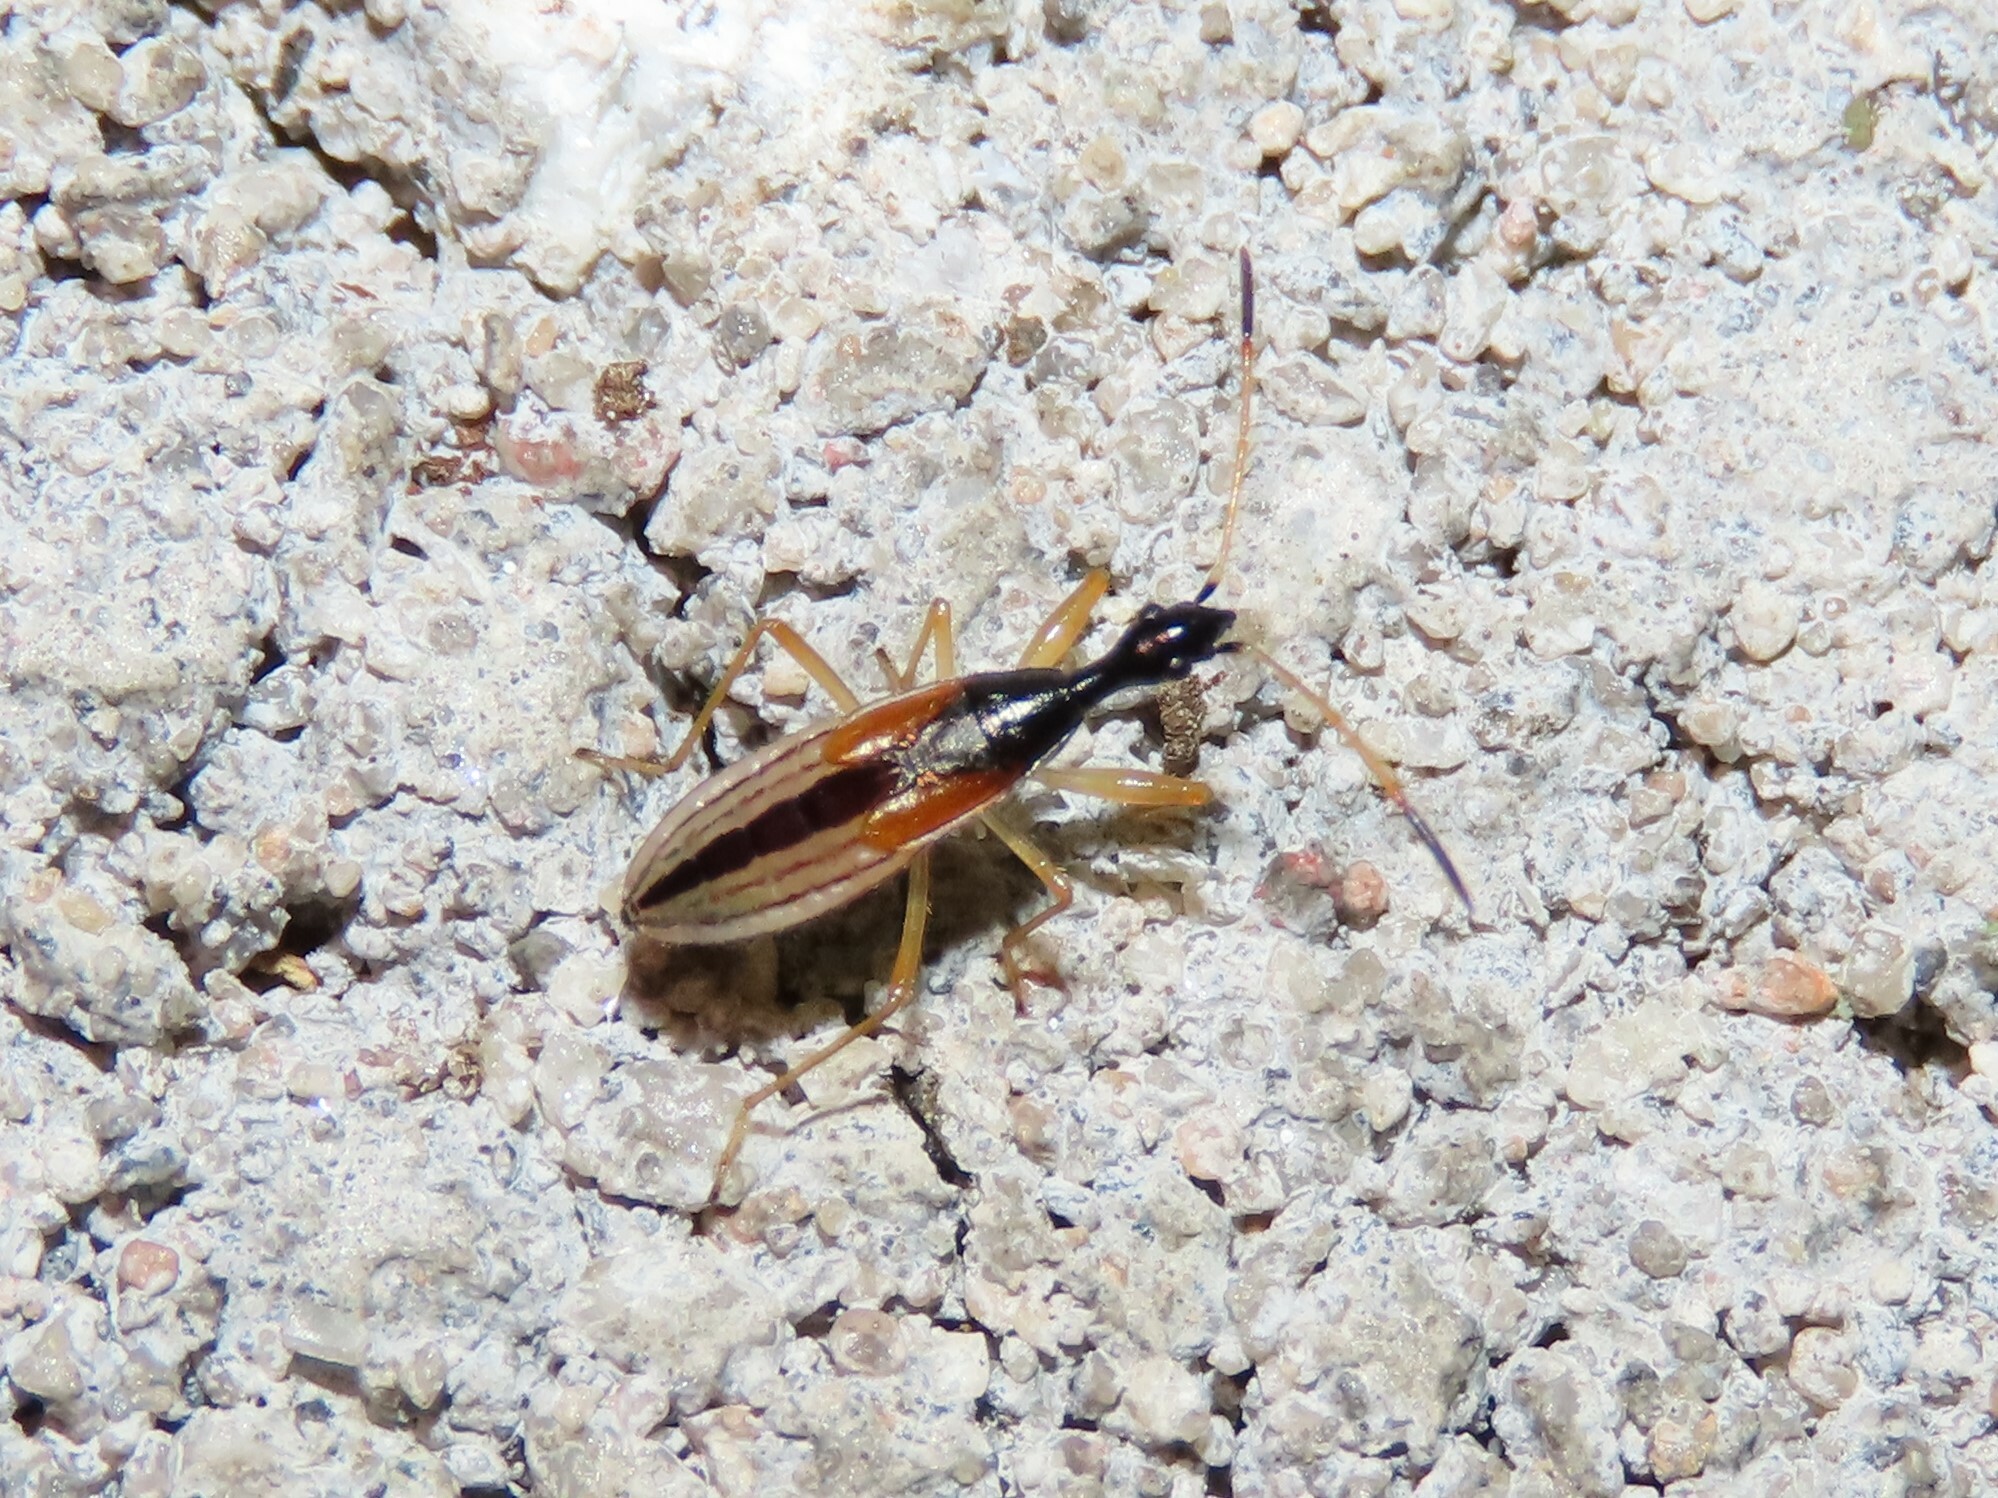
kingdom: Animalia
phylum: Arthropoda
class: Insecta
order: Hemiptera
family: Rhyparochromidae
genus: Myodocha
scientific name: Myodocha serripes
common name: Long-necked seed bug
